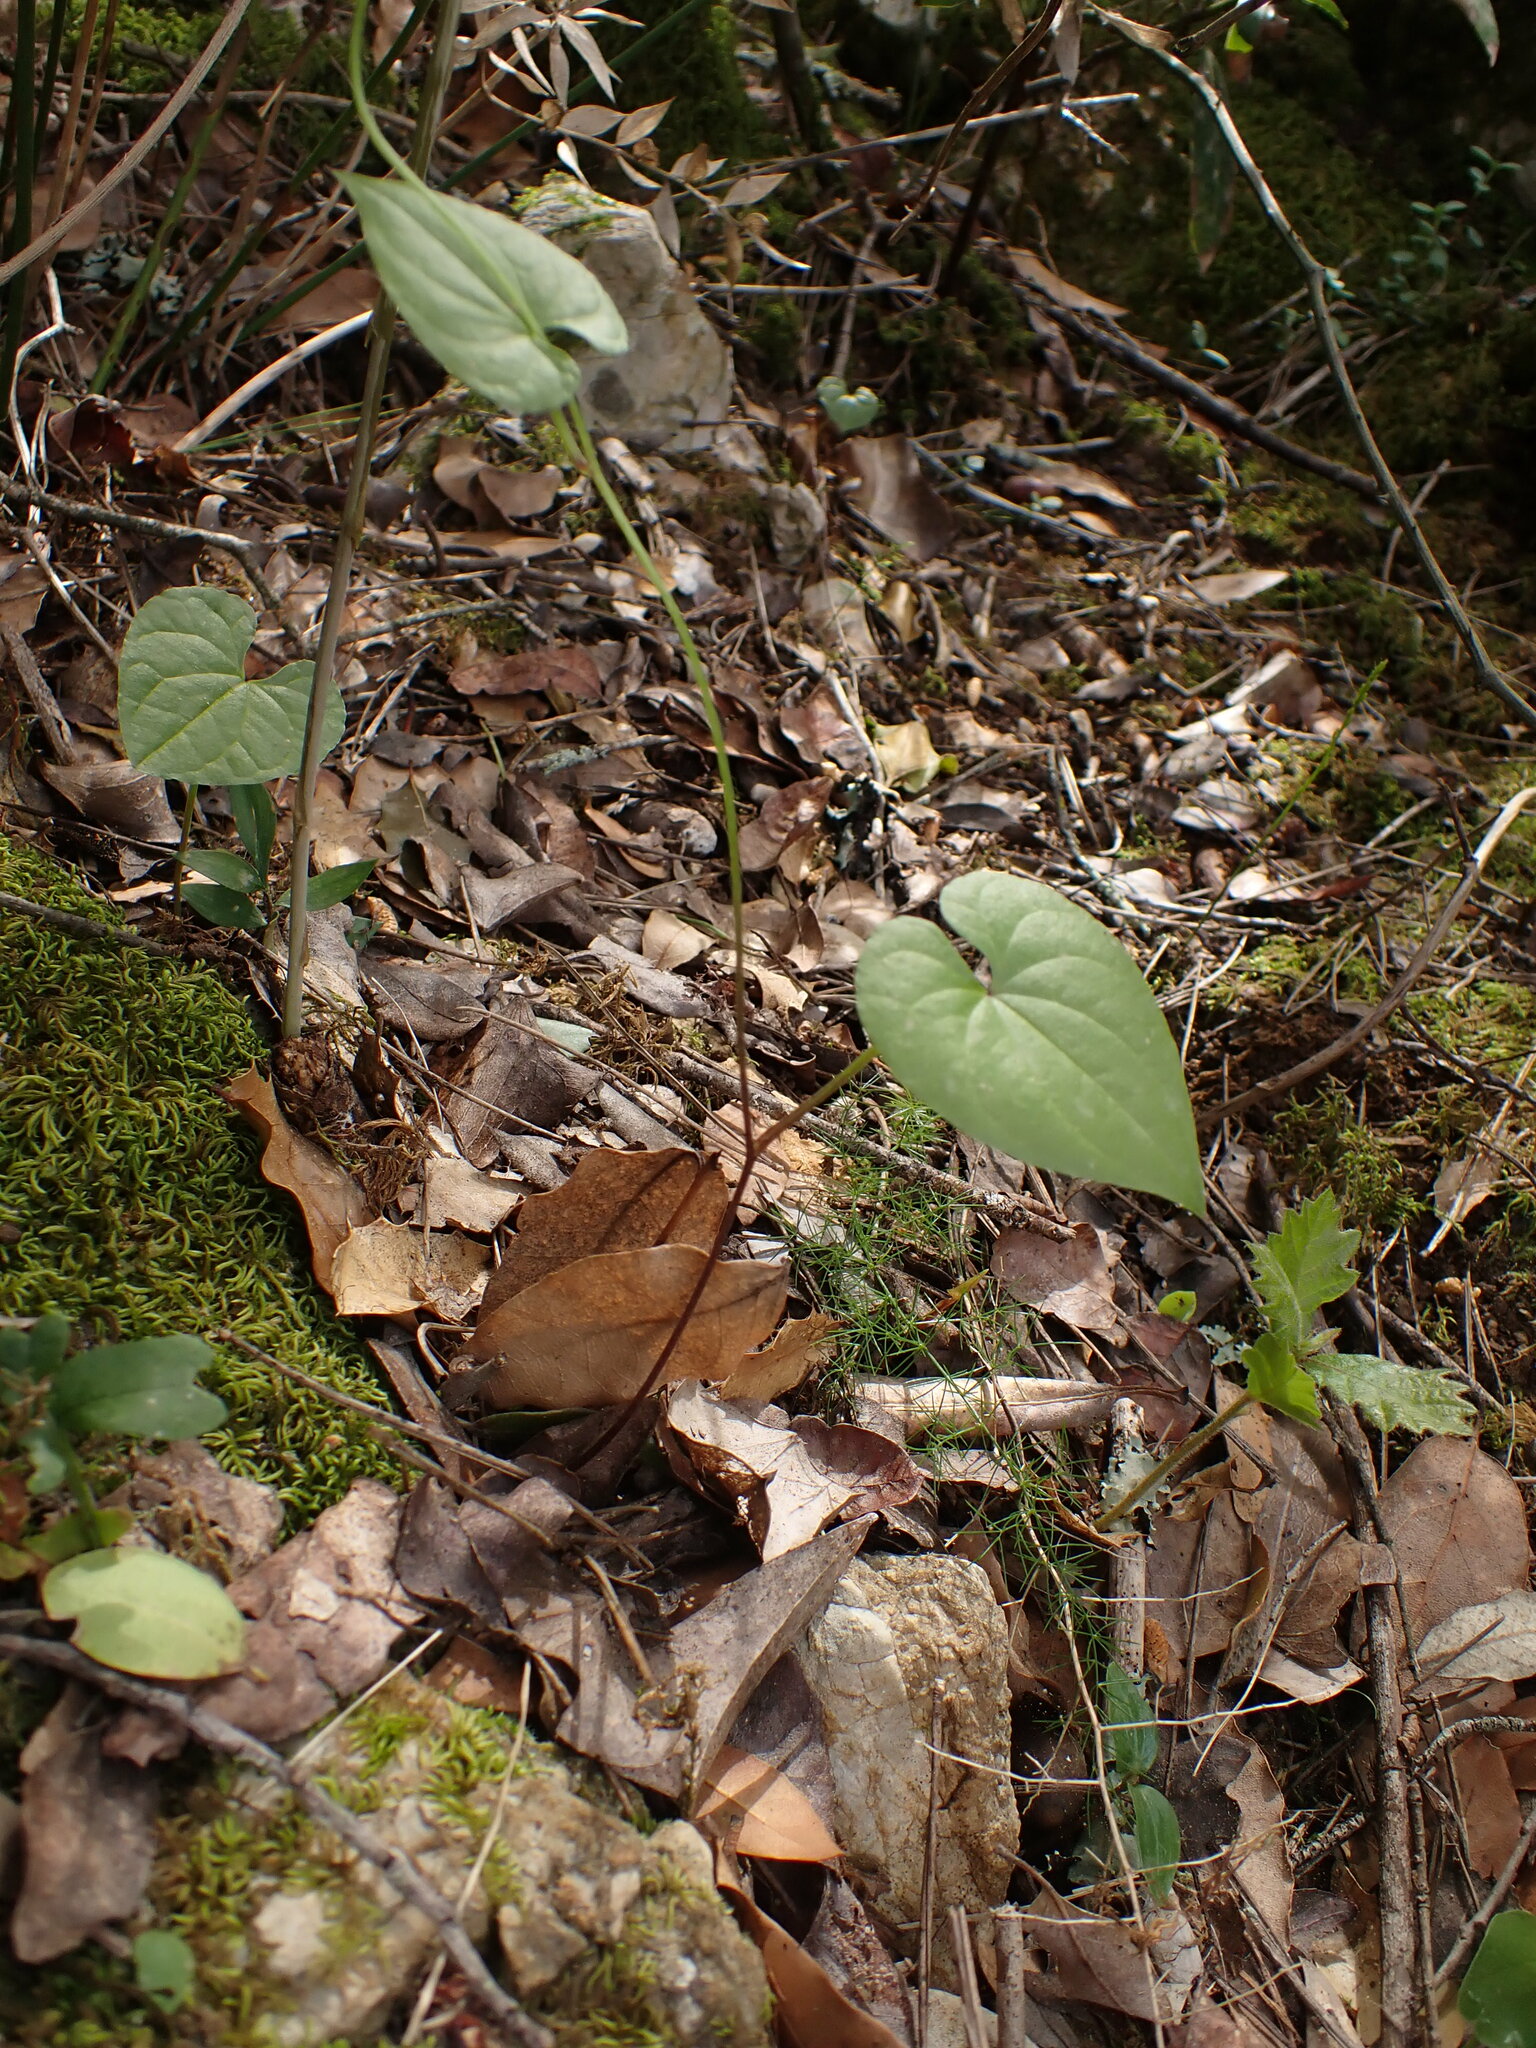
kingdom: Plantae
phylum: Tracheophyta
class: Liliopsida
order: Dioscoreales
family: Dioscoreaceae
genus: Dioscorea
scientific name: Dioscorea communis
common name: Black-bindweed
